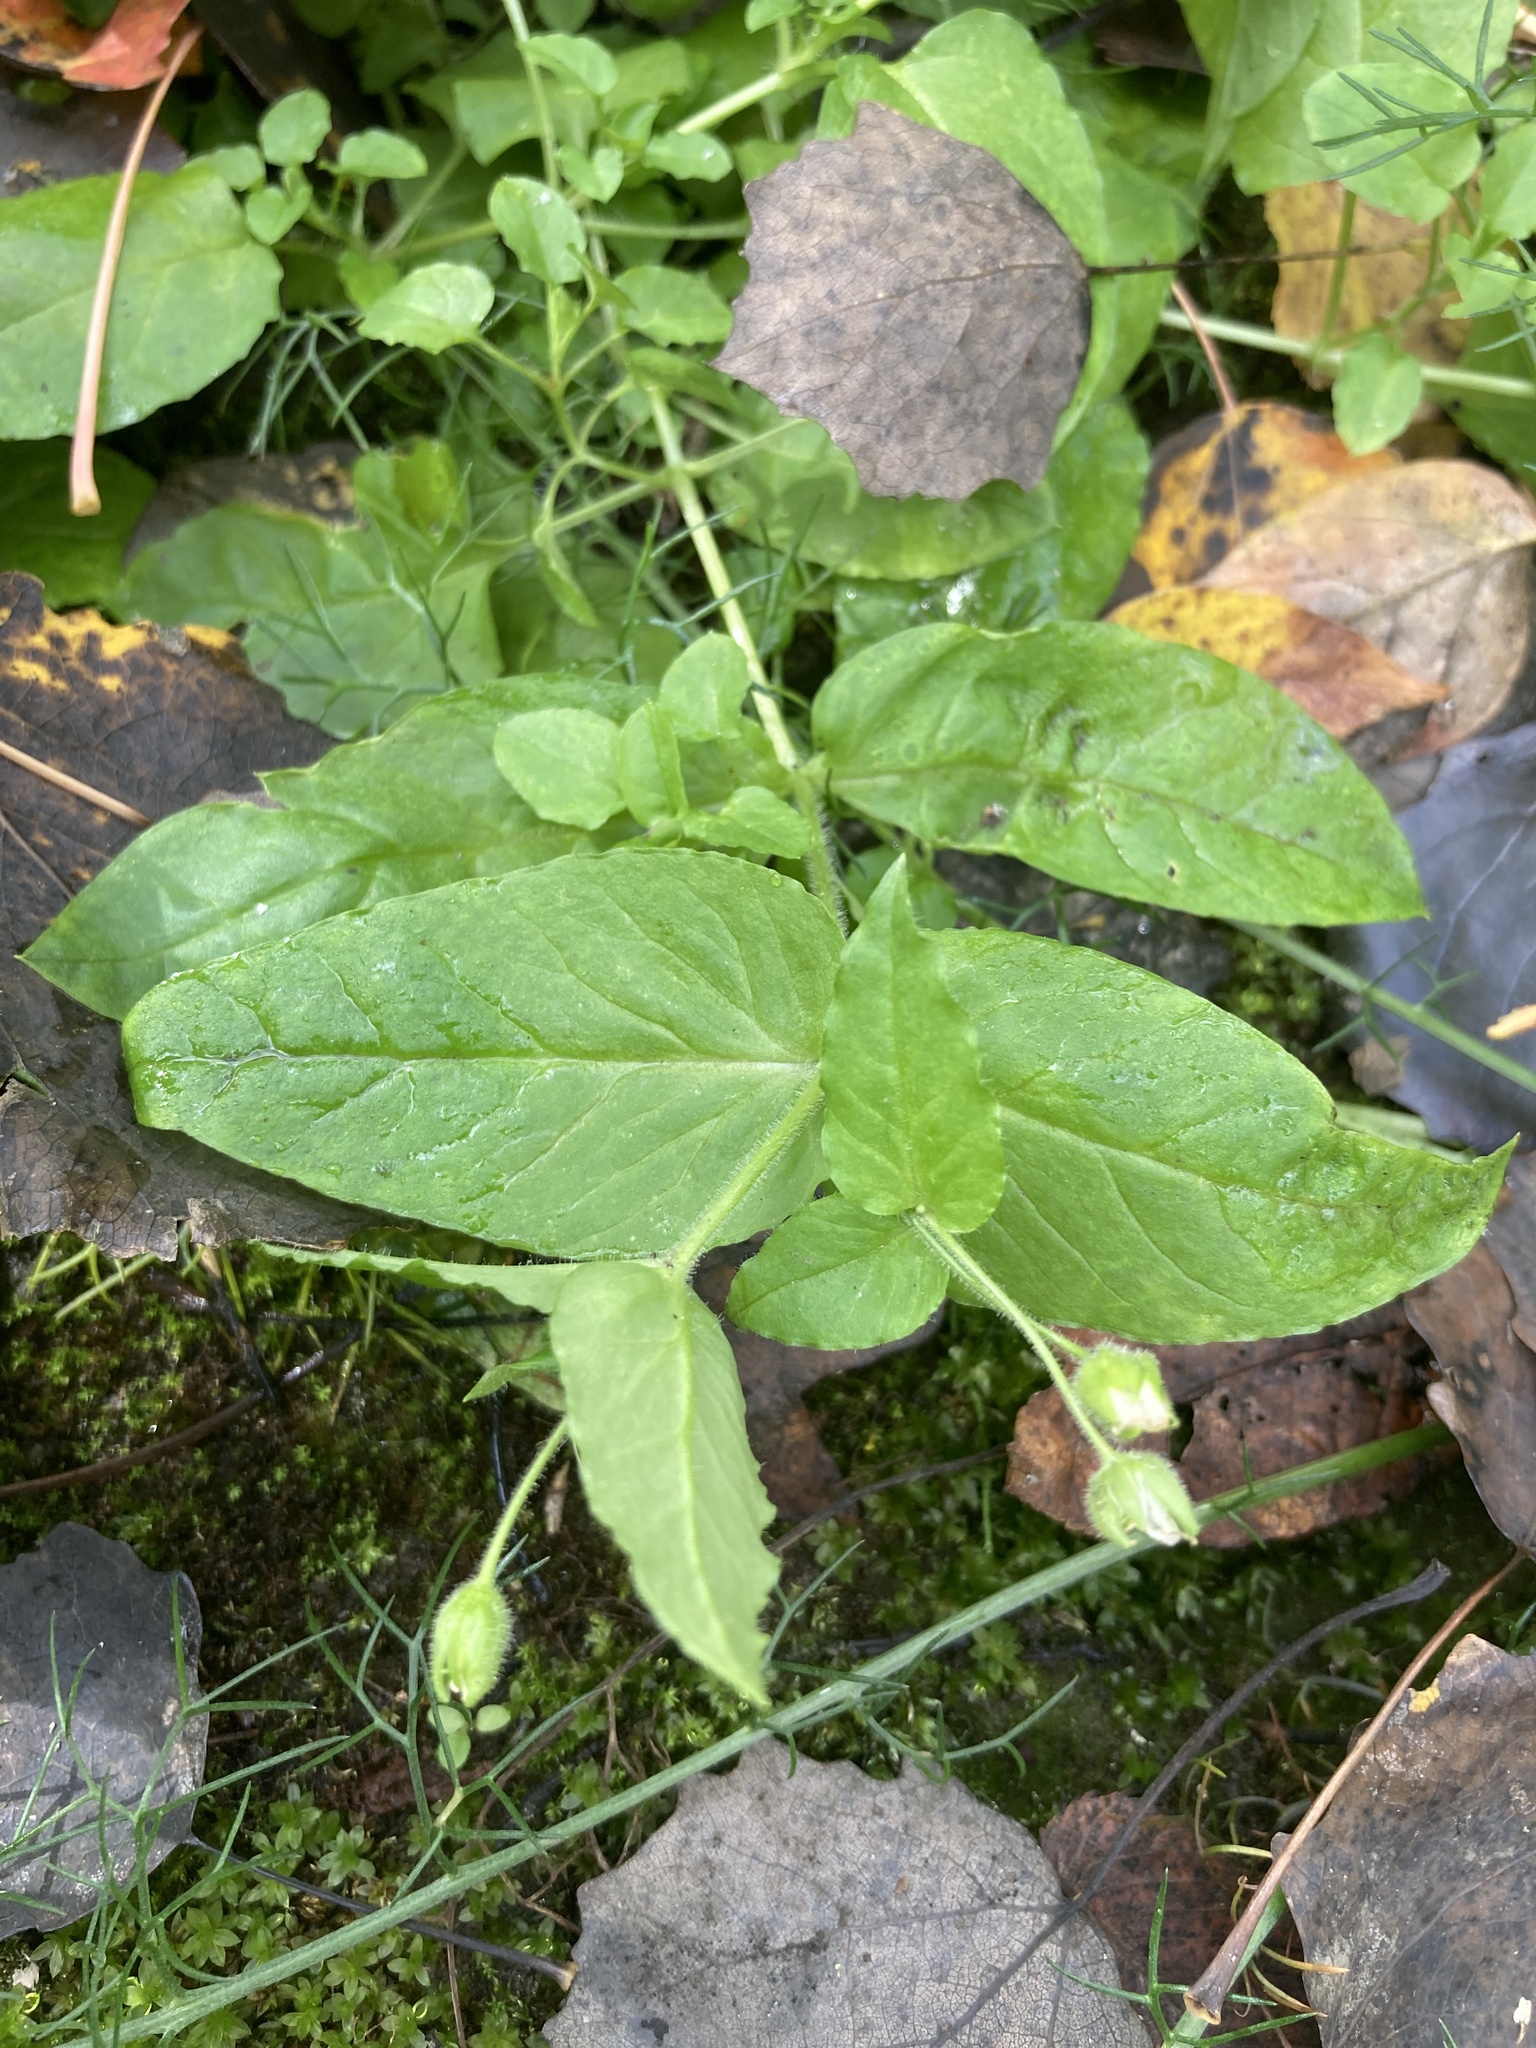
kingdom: Plantae
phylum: Tracheophyta
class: Magnoliopsida
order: Caryophyllales
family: Caryophyllaceae
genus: Stellaria
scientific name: Stellaria aquatica
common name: Water chickweed
